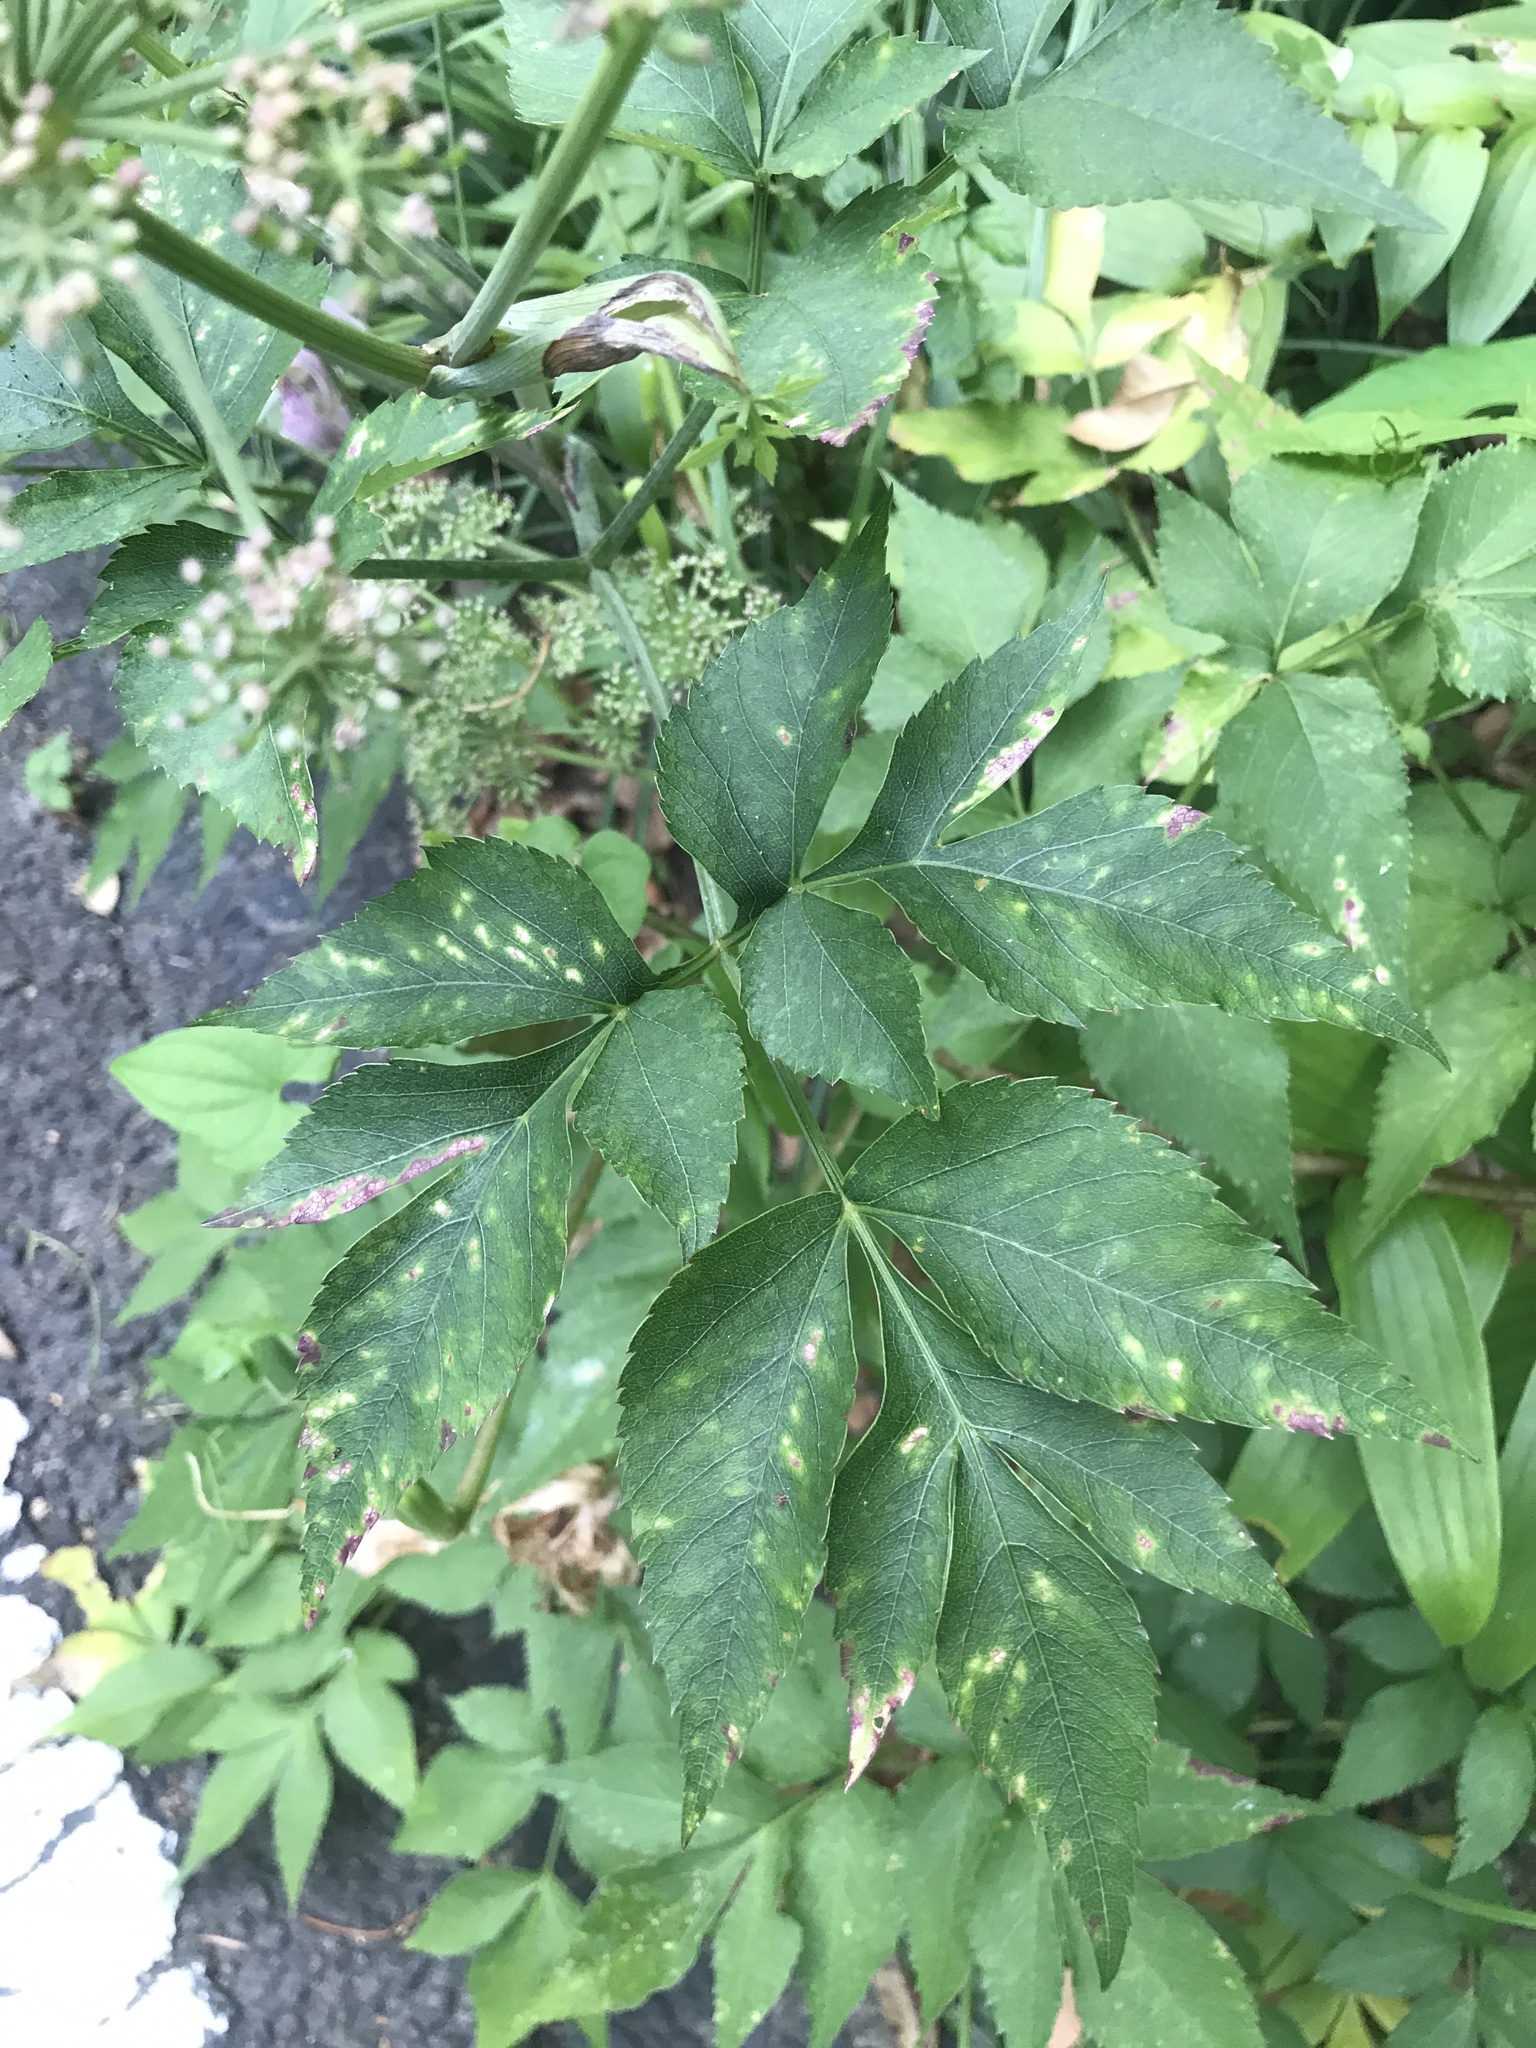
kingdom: Plantae
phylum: Tracheophyta
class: Magnoliopsida
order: Apiales
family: Apiaceae
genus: Angelica
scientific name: Angelica shikokiana
